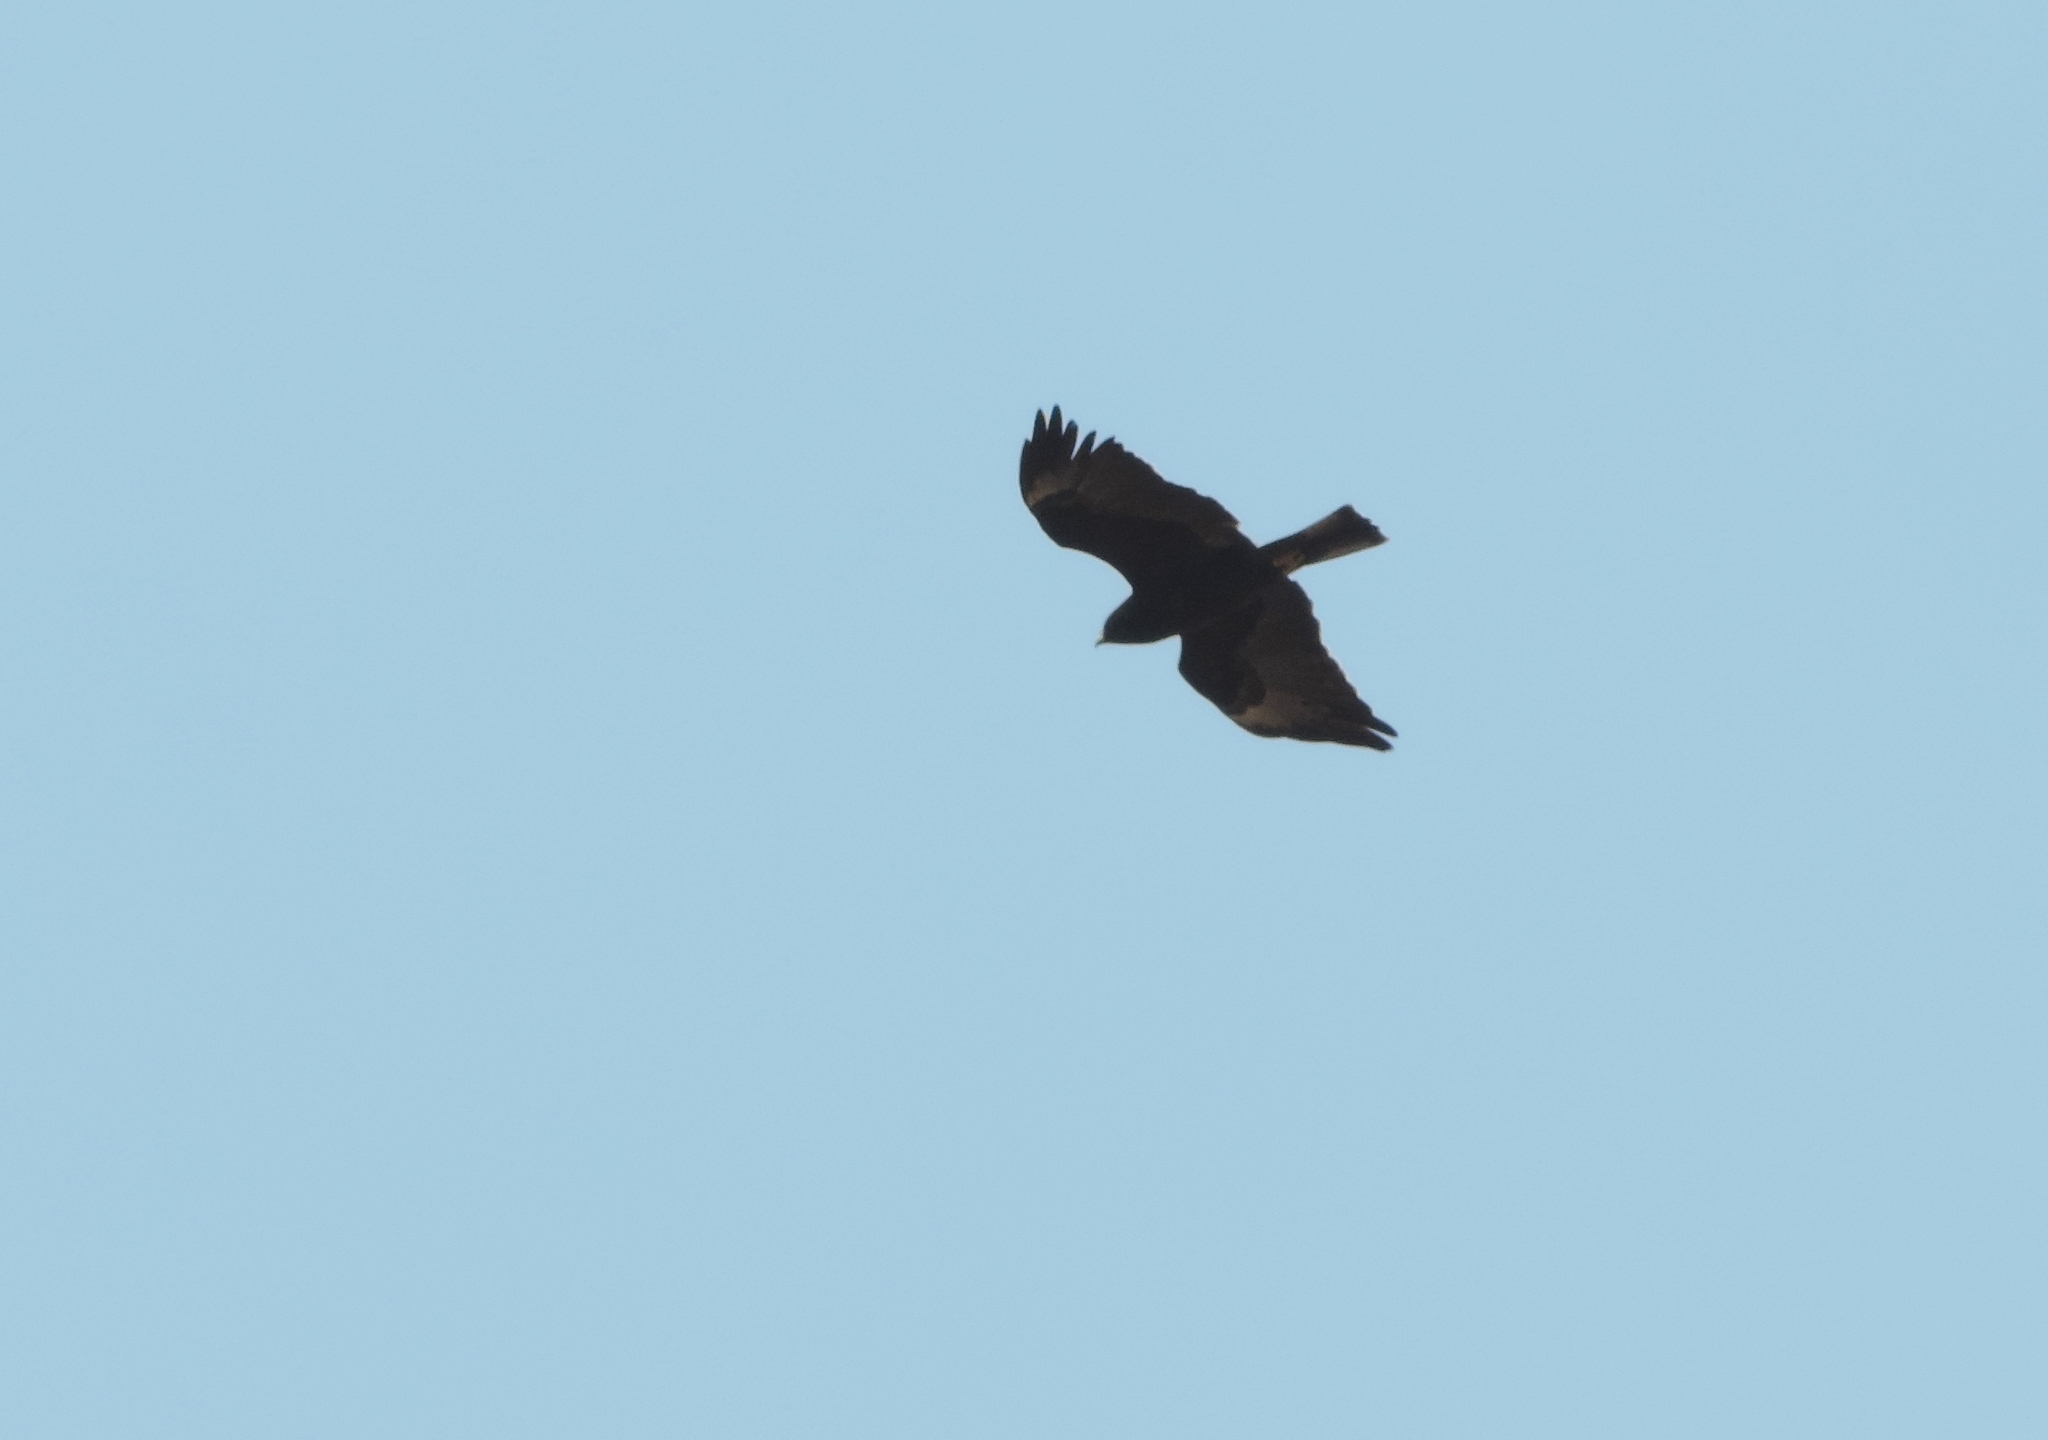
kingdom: Animalia
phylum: Chordata
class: Aves
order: Accipitriformes
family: Accipitridae
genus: Hieraaetus
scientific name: Hieraaetus wahlbergi
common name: Wahlberg's eagle
